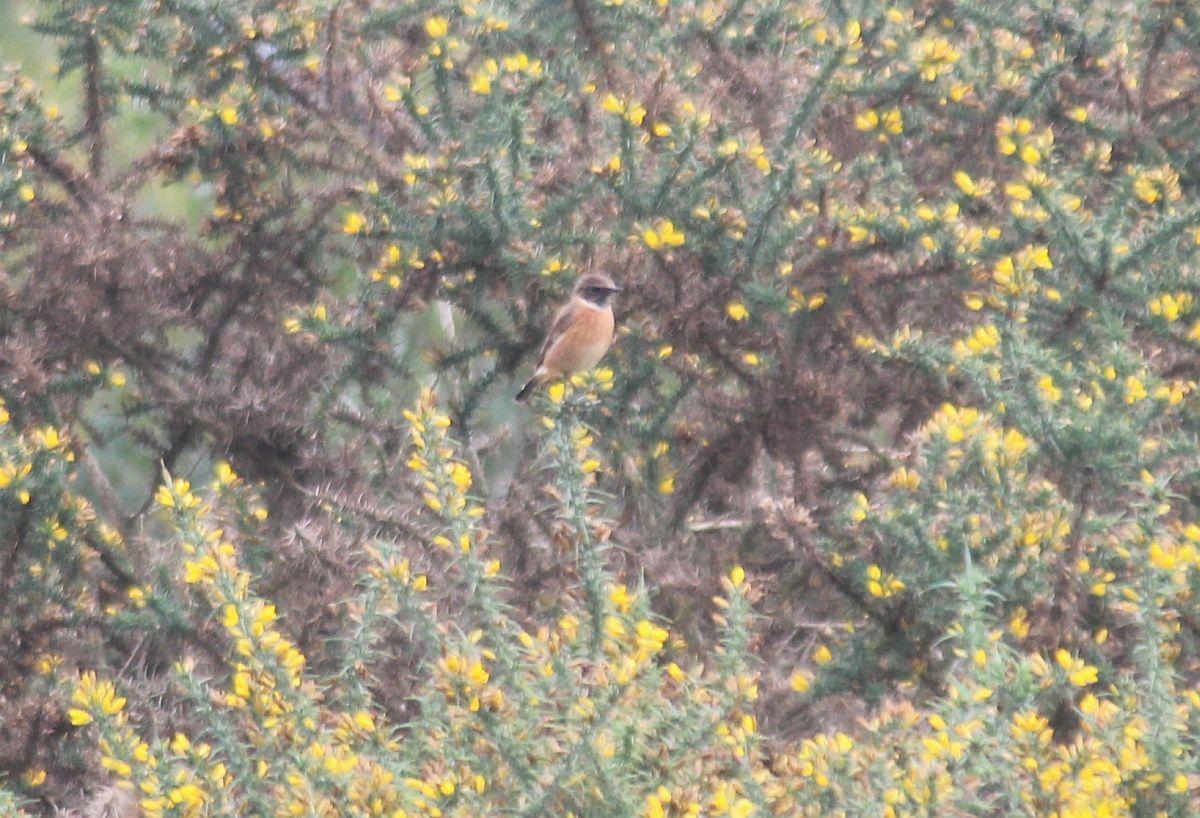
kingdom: Animalia
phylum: Chordata
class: Aves
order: Passeriformes
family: Muscicapidae
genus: Saxicola
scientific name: Saxicola rubicola
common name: European stonechat
